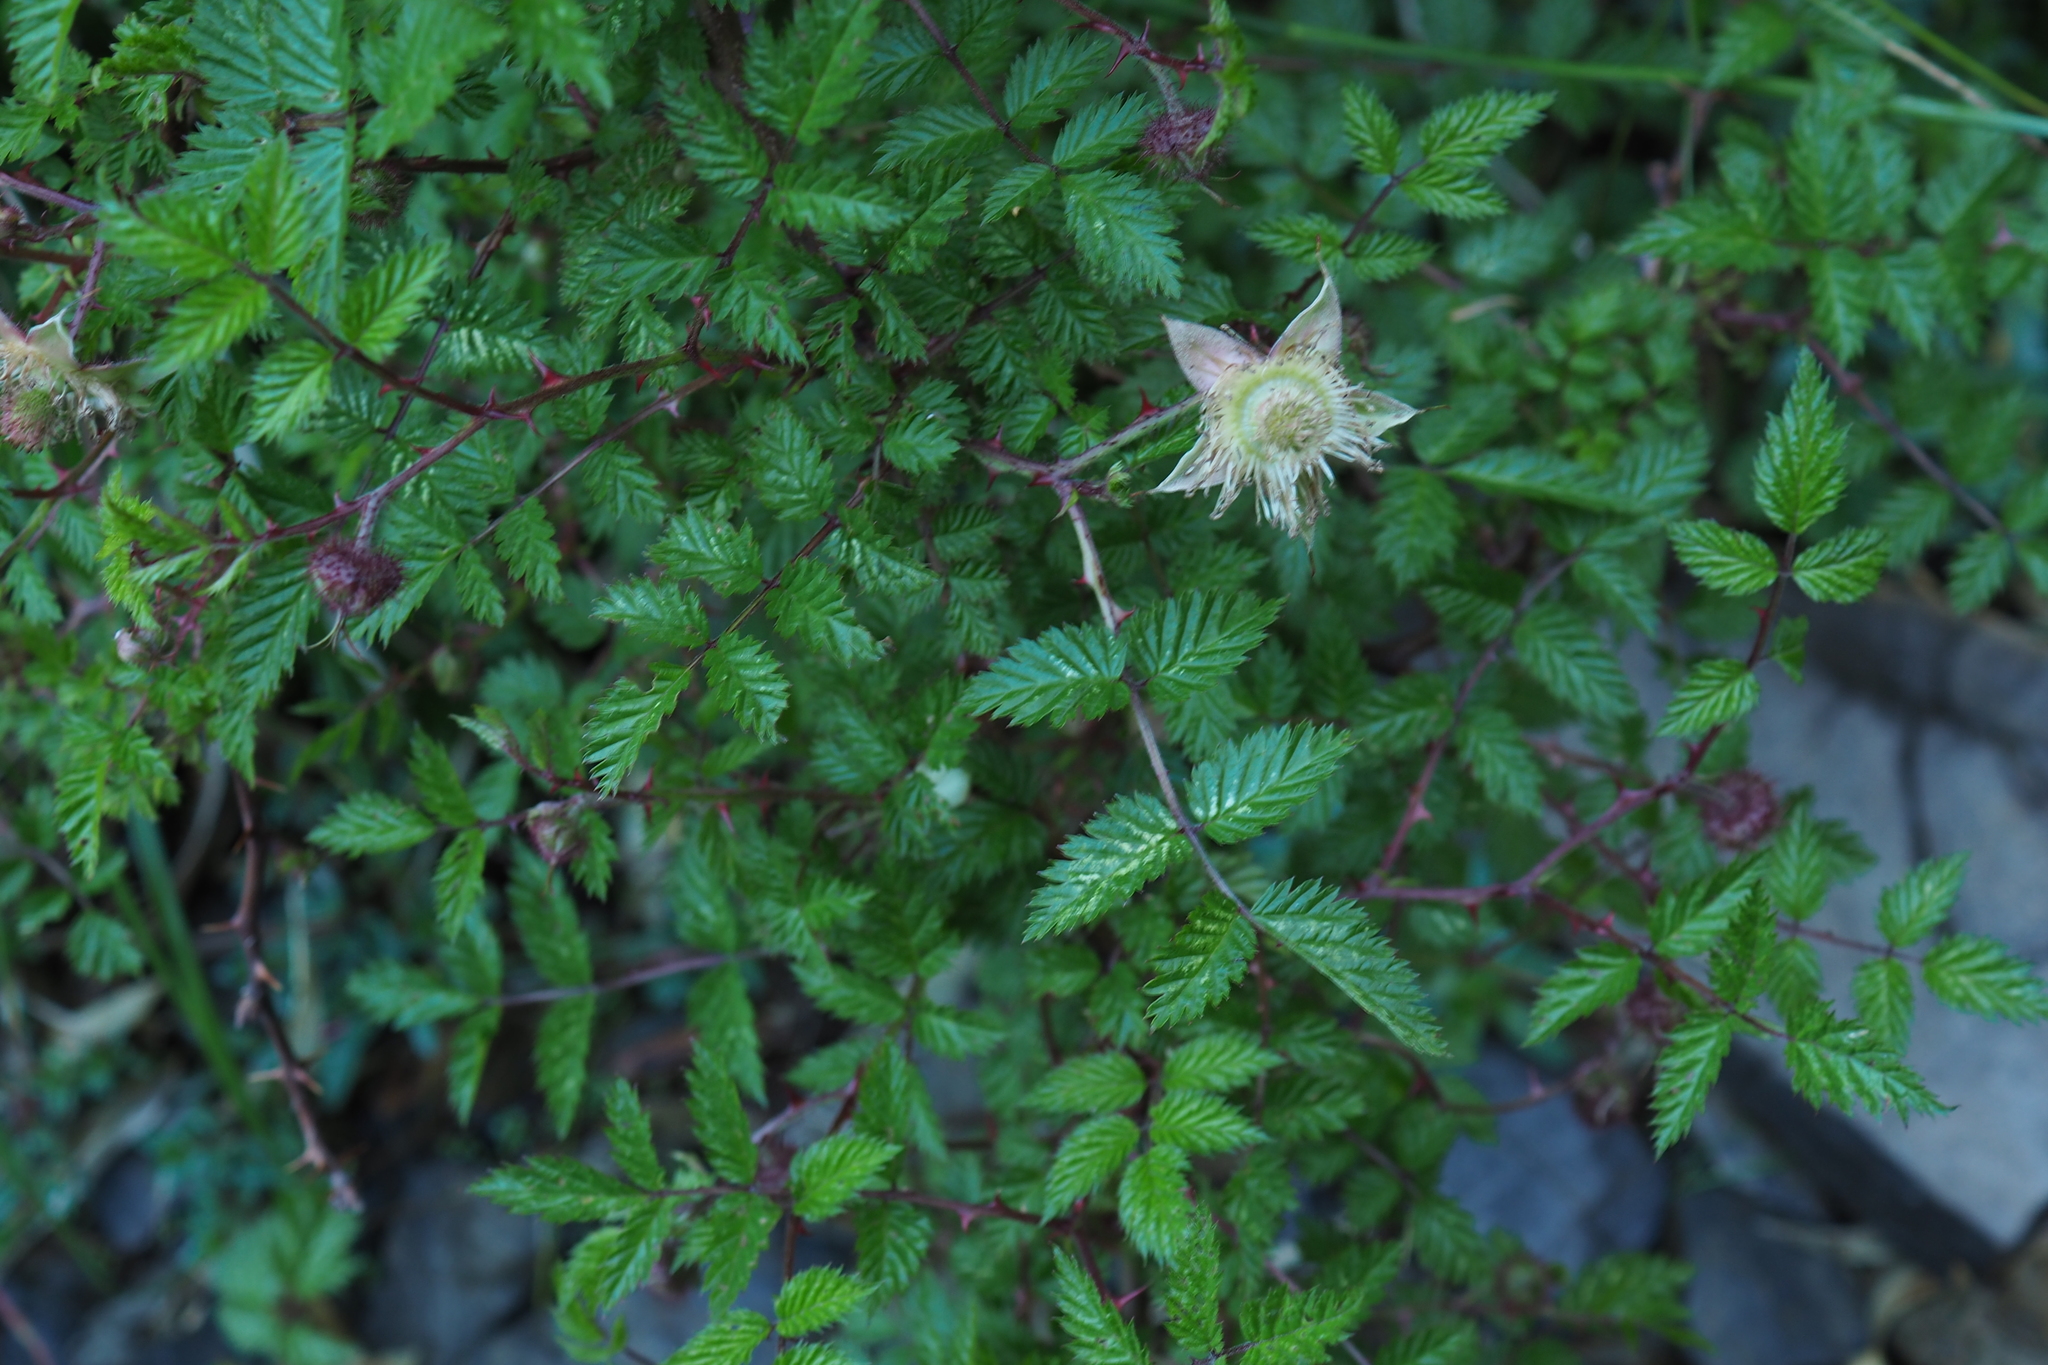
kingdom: Plantae
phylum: Tracheophyta
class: Magnoliopsida
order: Rosales
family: Rosaceae
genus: Rubus
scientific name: Rubus pungens
